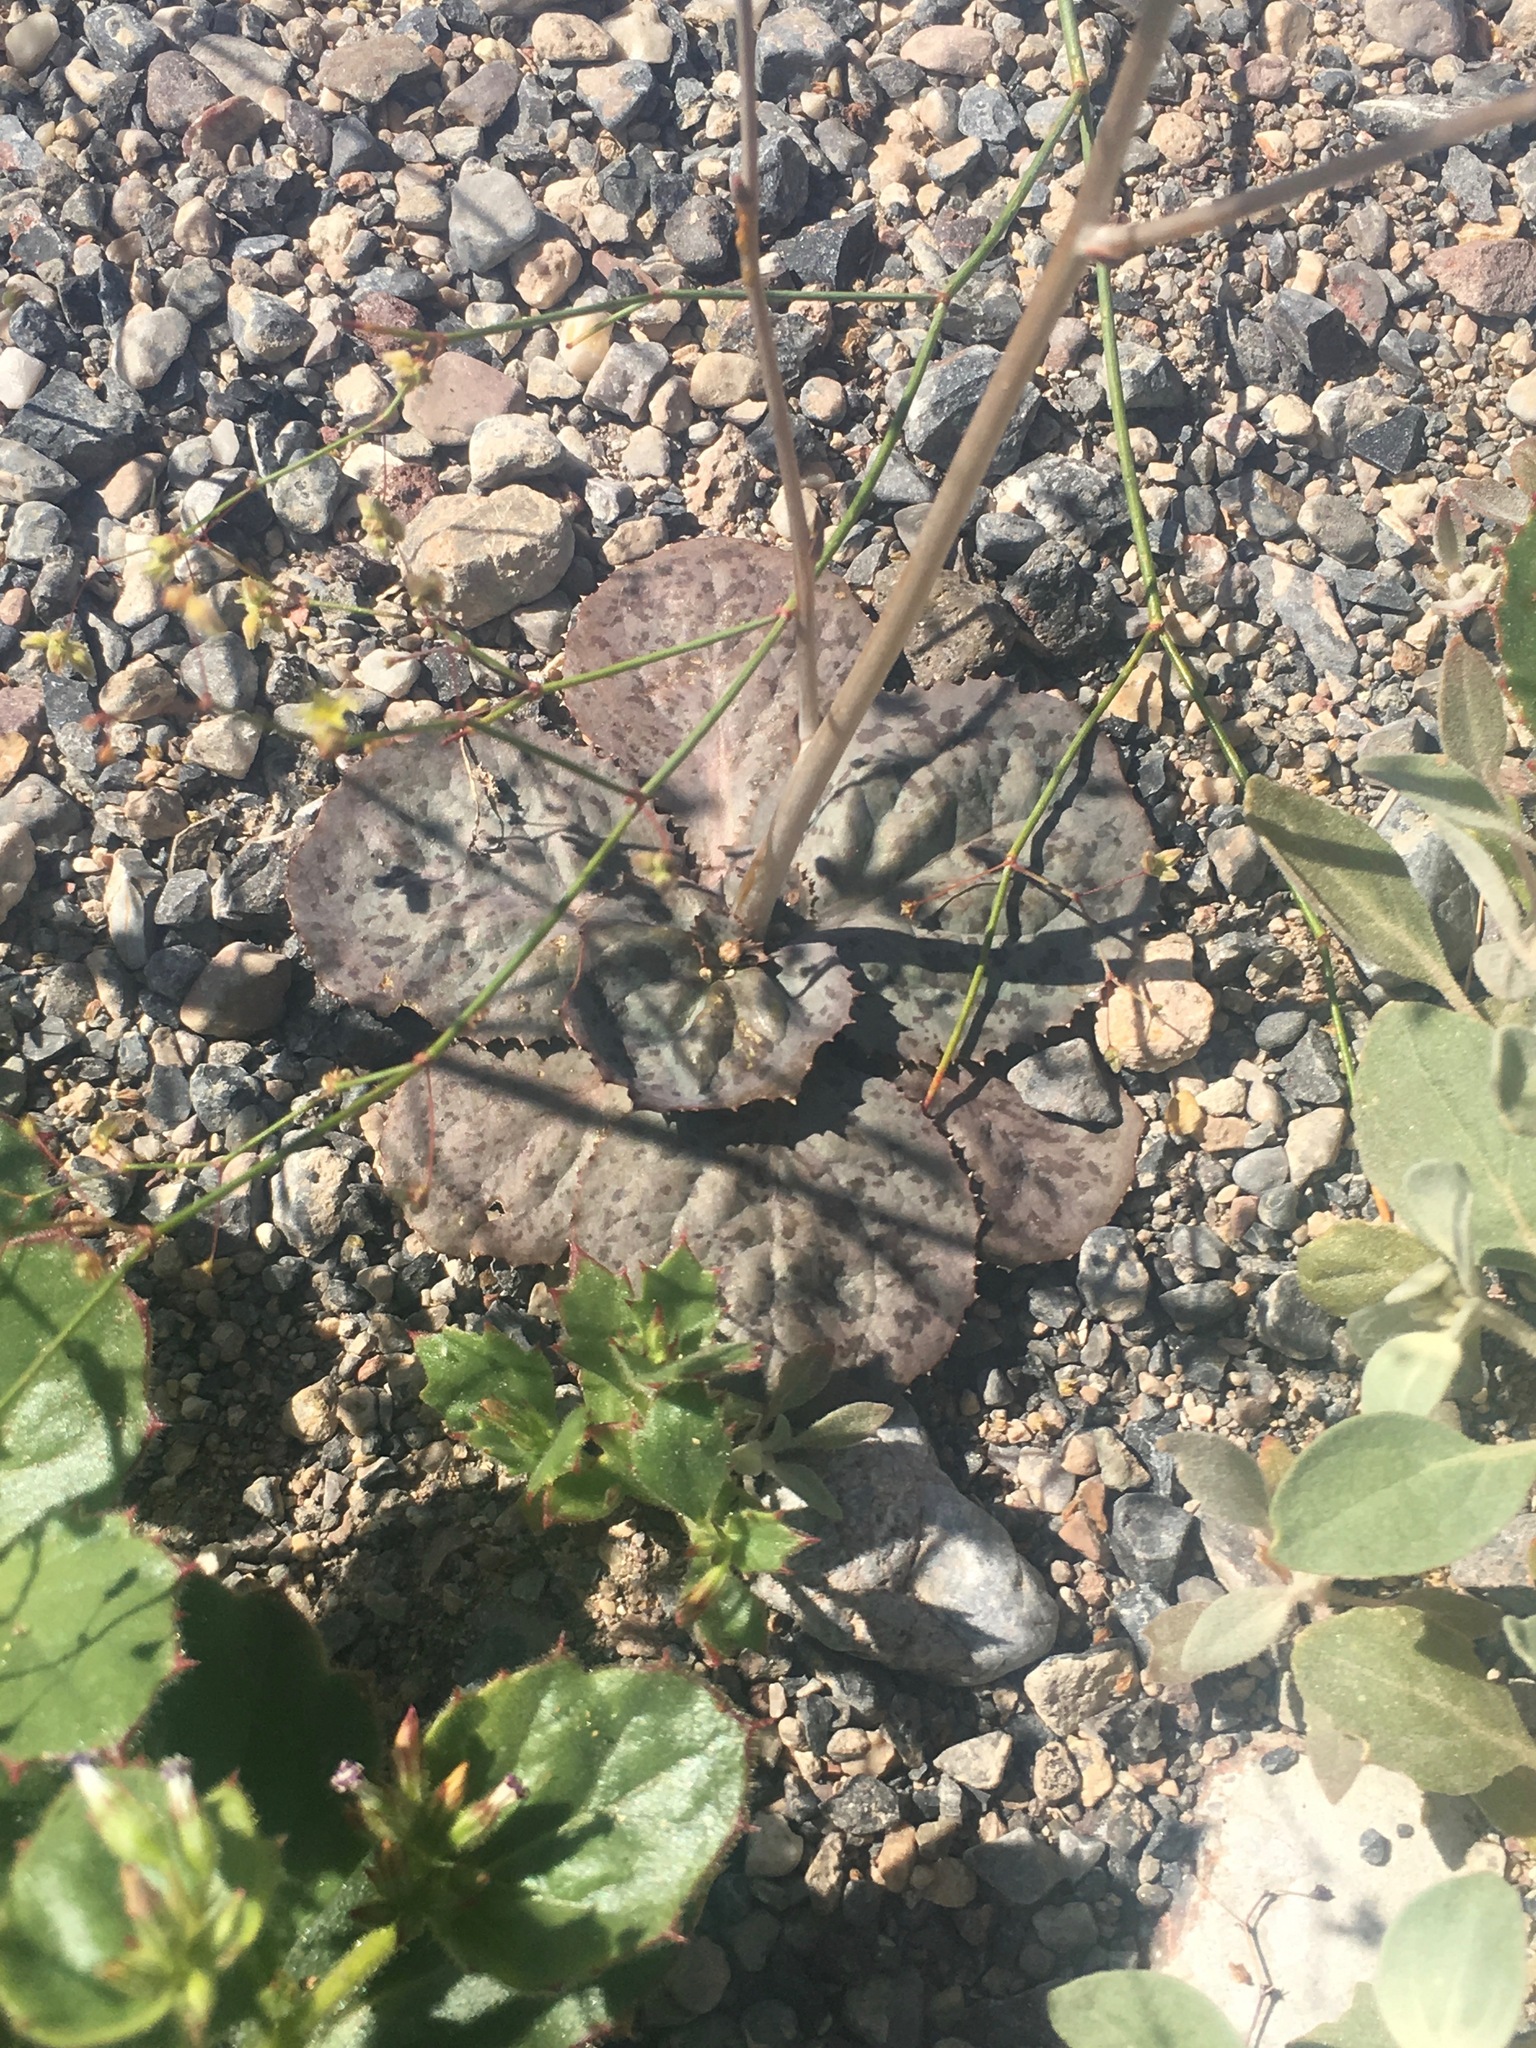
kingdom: Plantae
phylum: Tracheophyta
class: Magnoliopsida
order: Asterales
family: Asteraceae
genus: Atrichoseris
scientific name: Atrichoseris platyphylla
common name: Tobaccoweed
